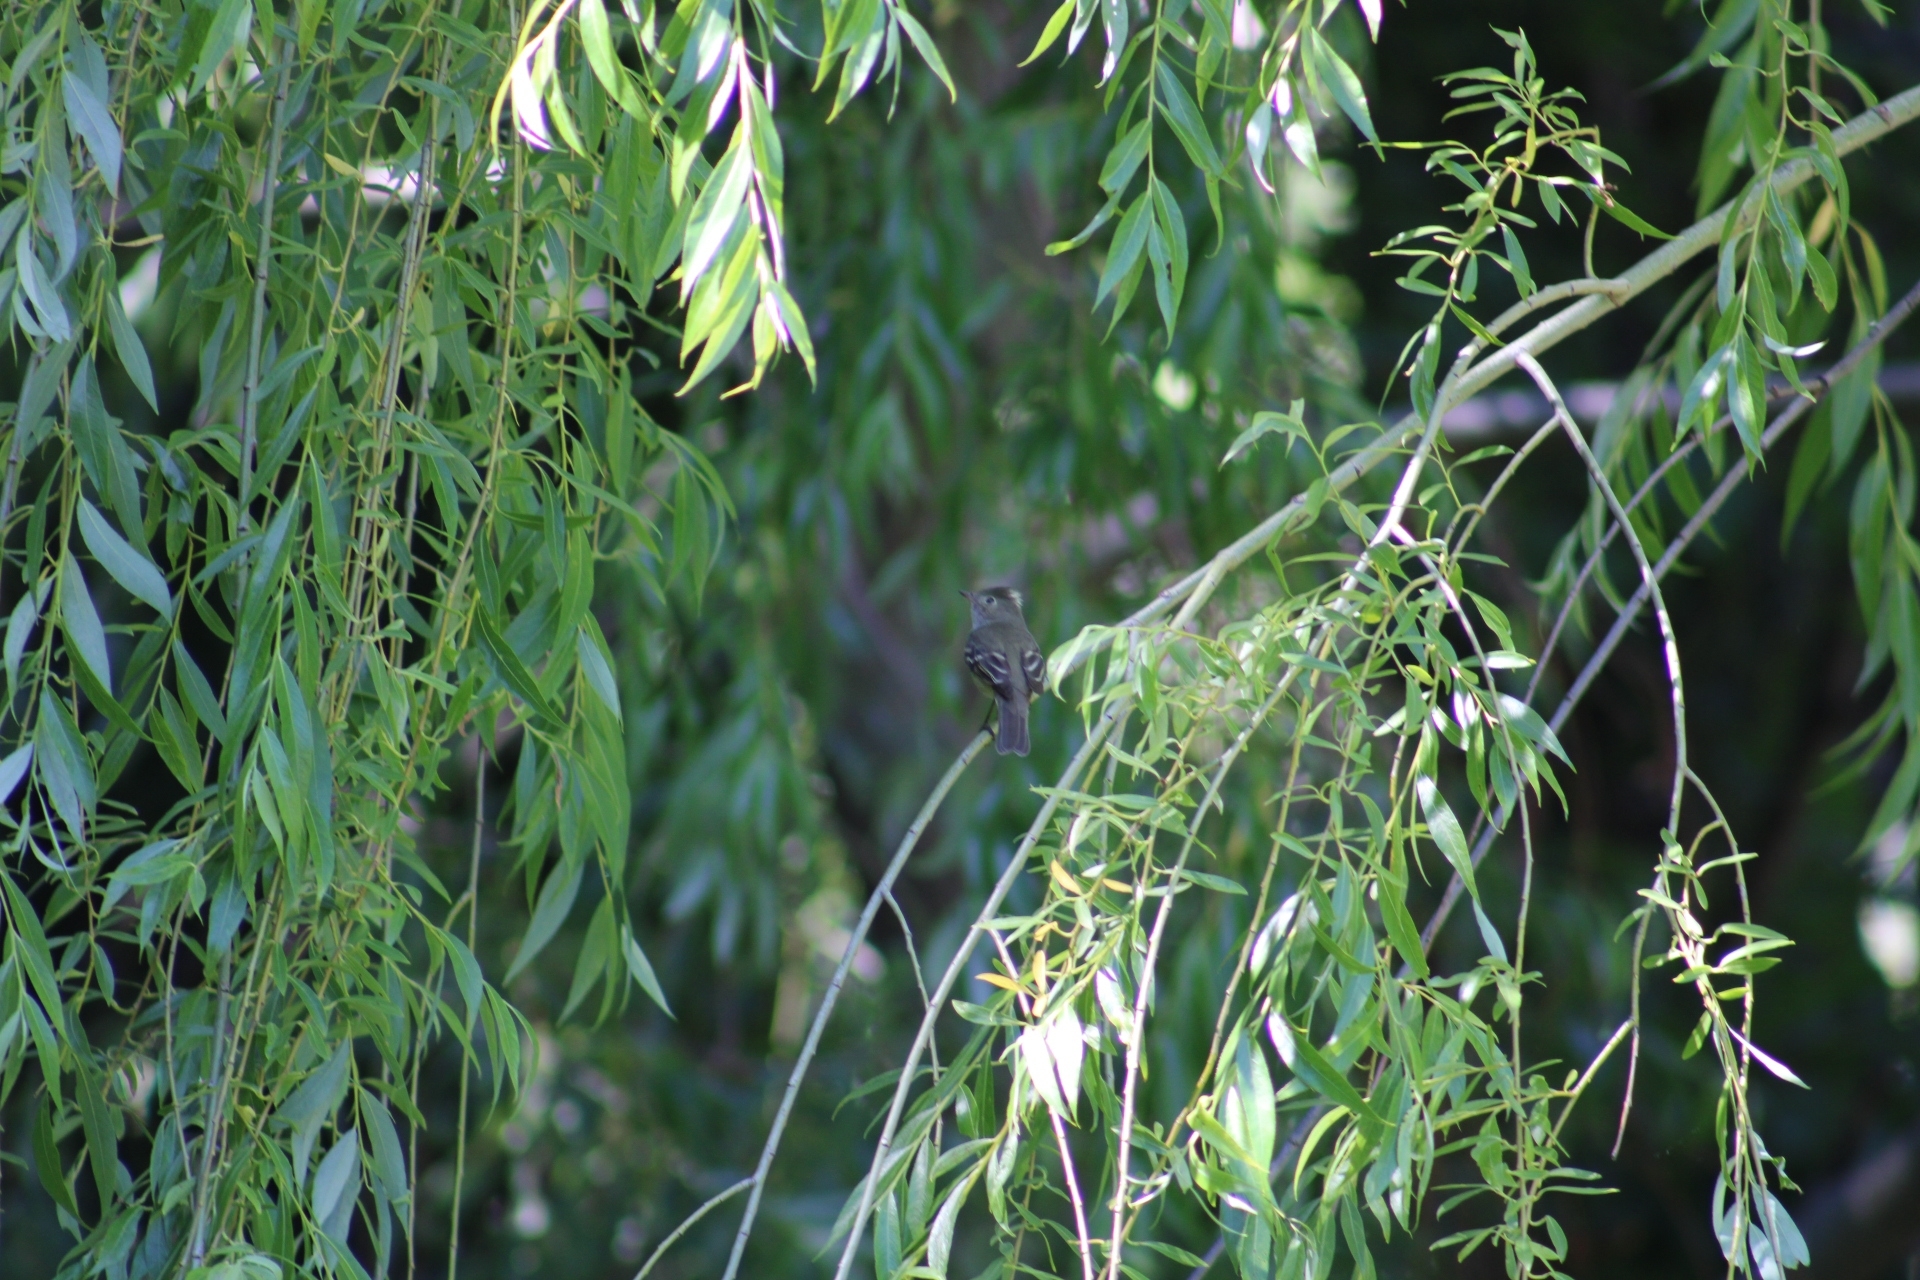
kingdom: Animalia
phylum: Chordata
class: Aves
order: Passeriformes
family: Tyrannidae
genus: Elaenia
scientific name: Elaenia albiceps
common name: White-crested elaenia
